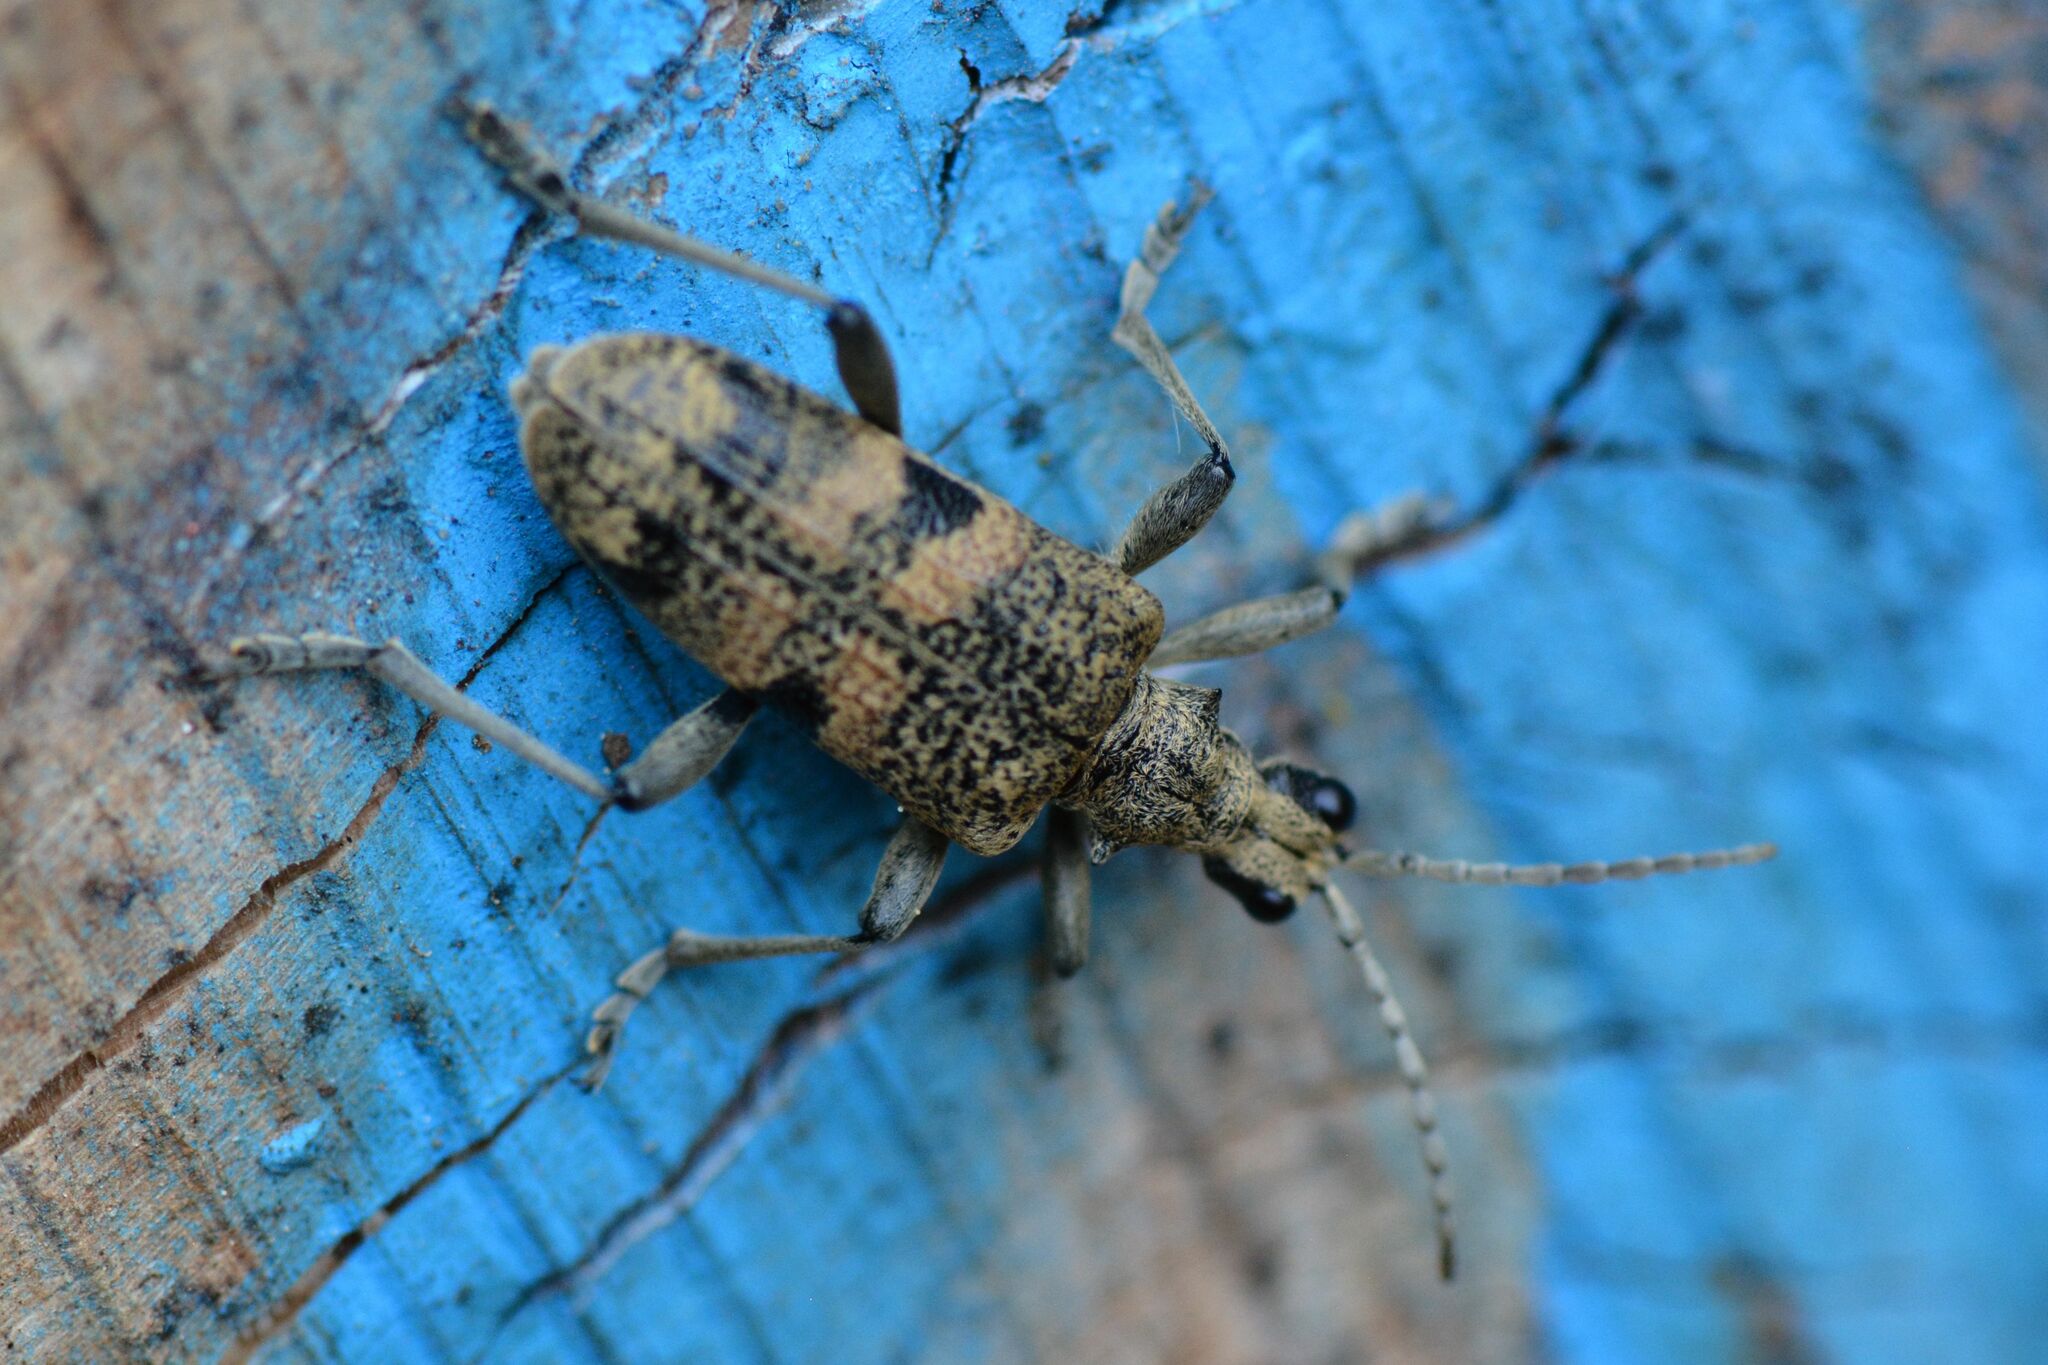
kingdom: Animalia
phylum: Arthropoda
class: Insecta
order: Coleoptera
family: Cerambycidae
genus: Rhagium
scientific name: Rhagium mordax
